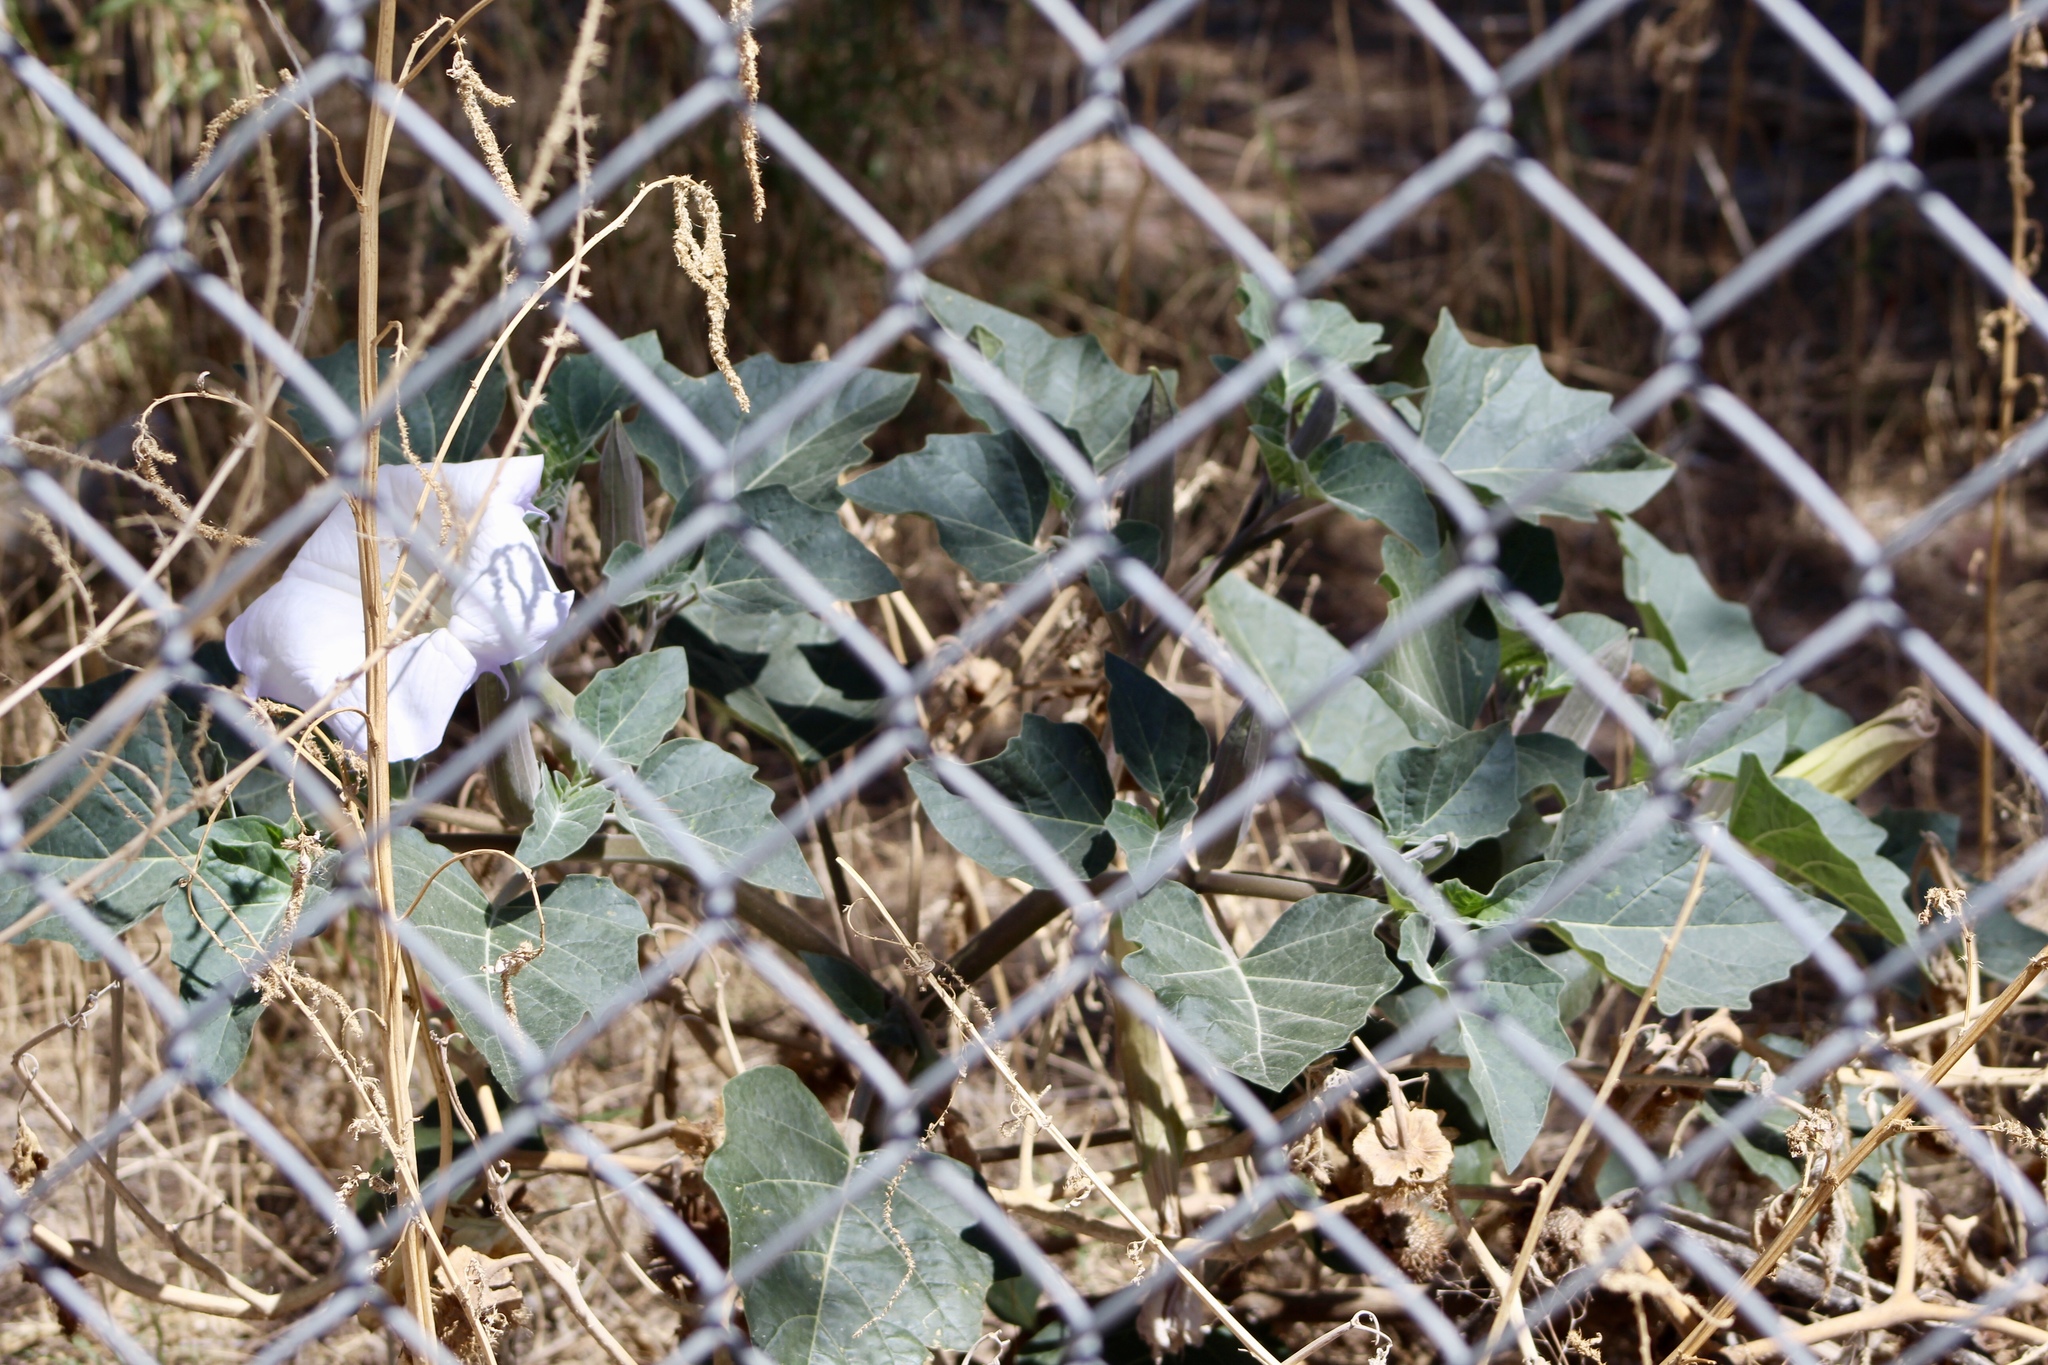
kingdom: Plantae
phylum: Tracheophyta
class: Magnoliopsida
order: Solanales
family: Solanaceae
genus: Datura
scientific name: Datura wrightii
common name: Sacred thorn-apple
